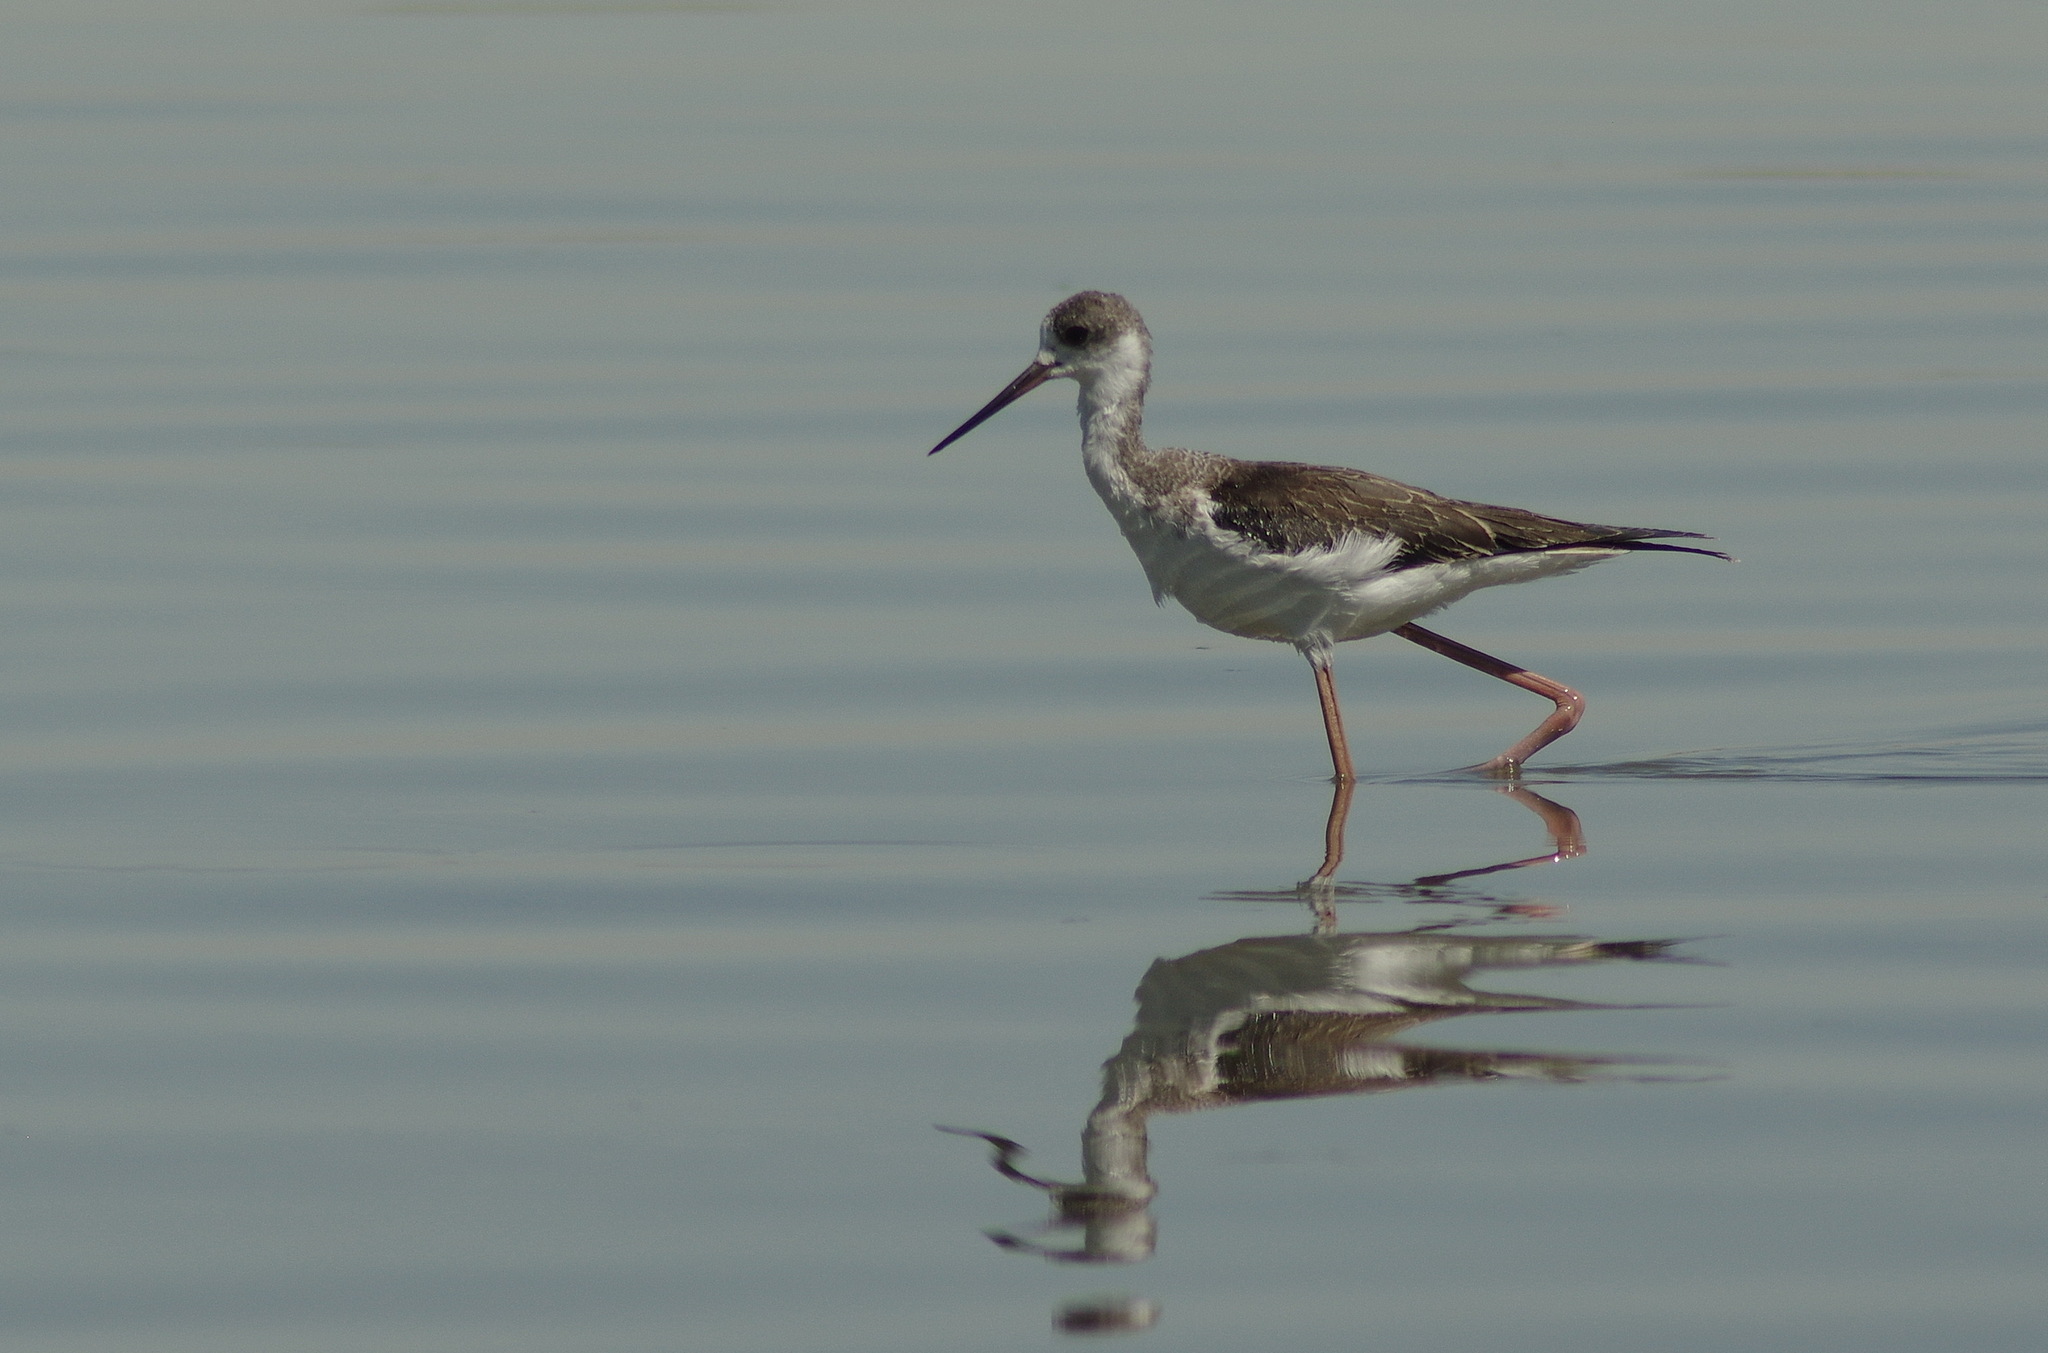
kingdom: Animalia
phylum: Chordata
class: Aves
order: Charadriiformes
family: Recurvirostridae
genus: Himantopus
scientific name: Himantopus himantopus
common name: Black-winged stilt
